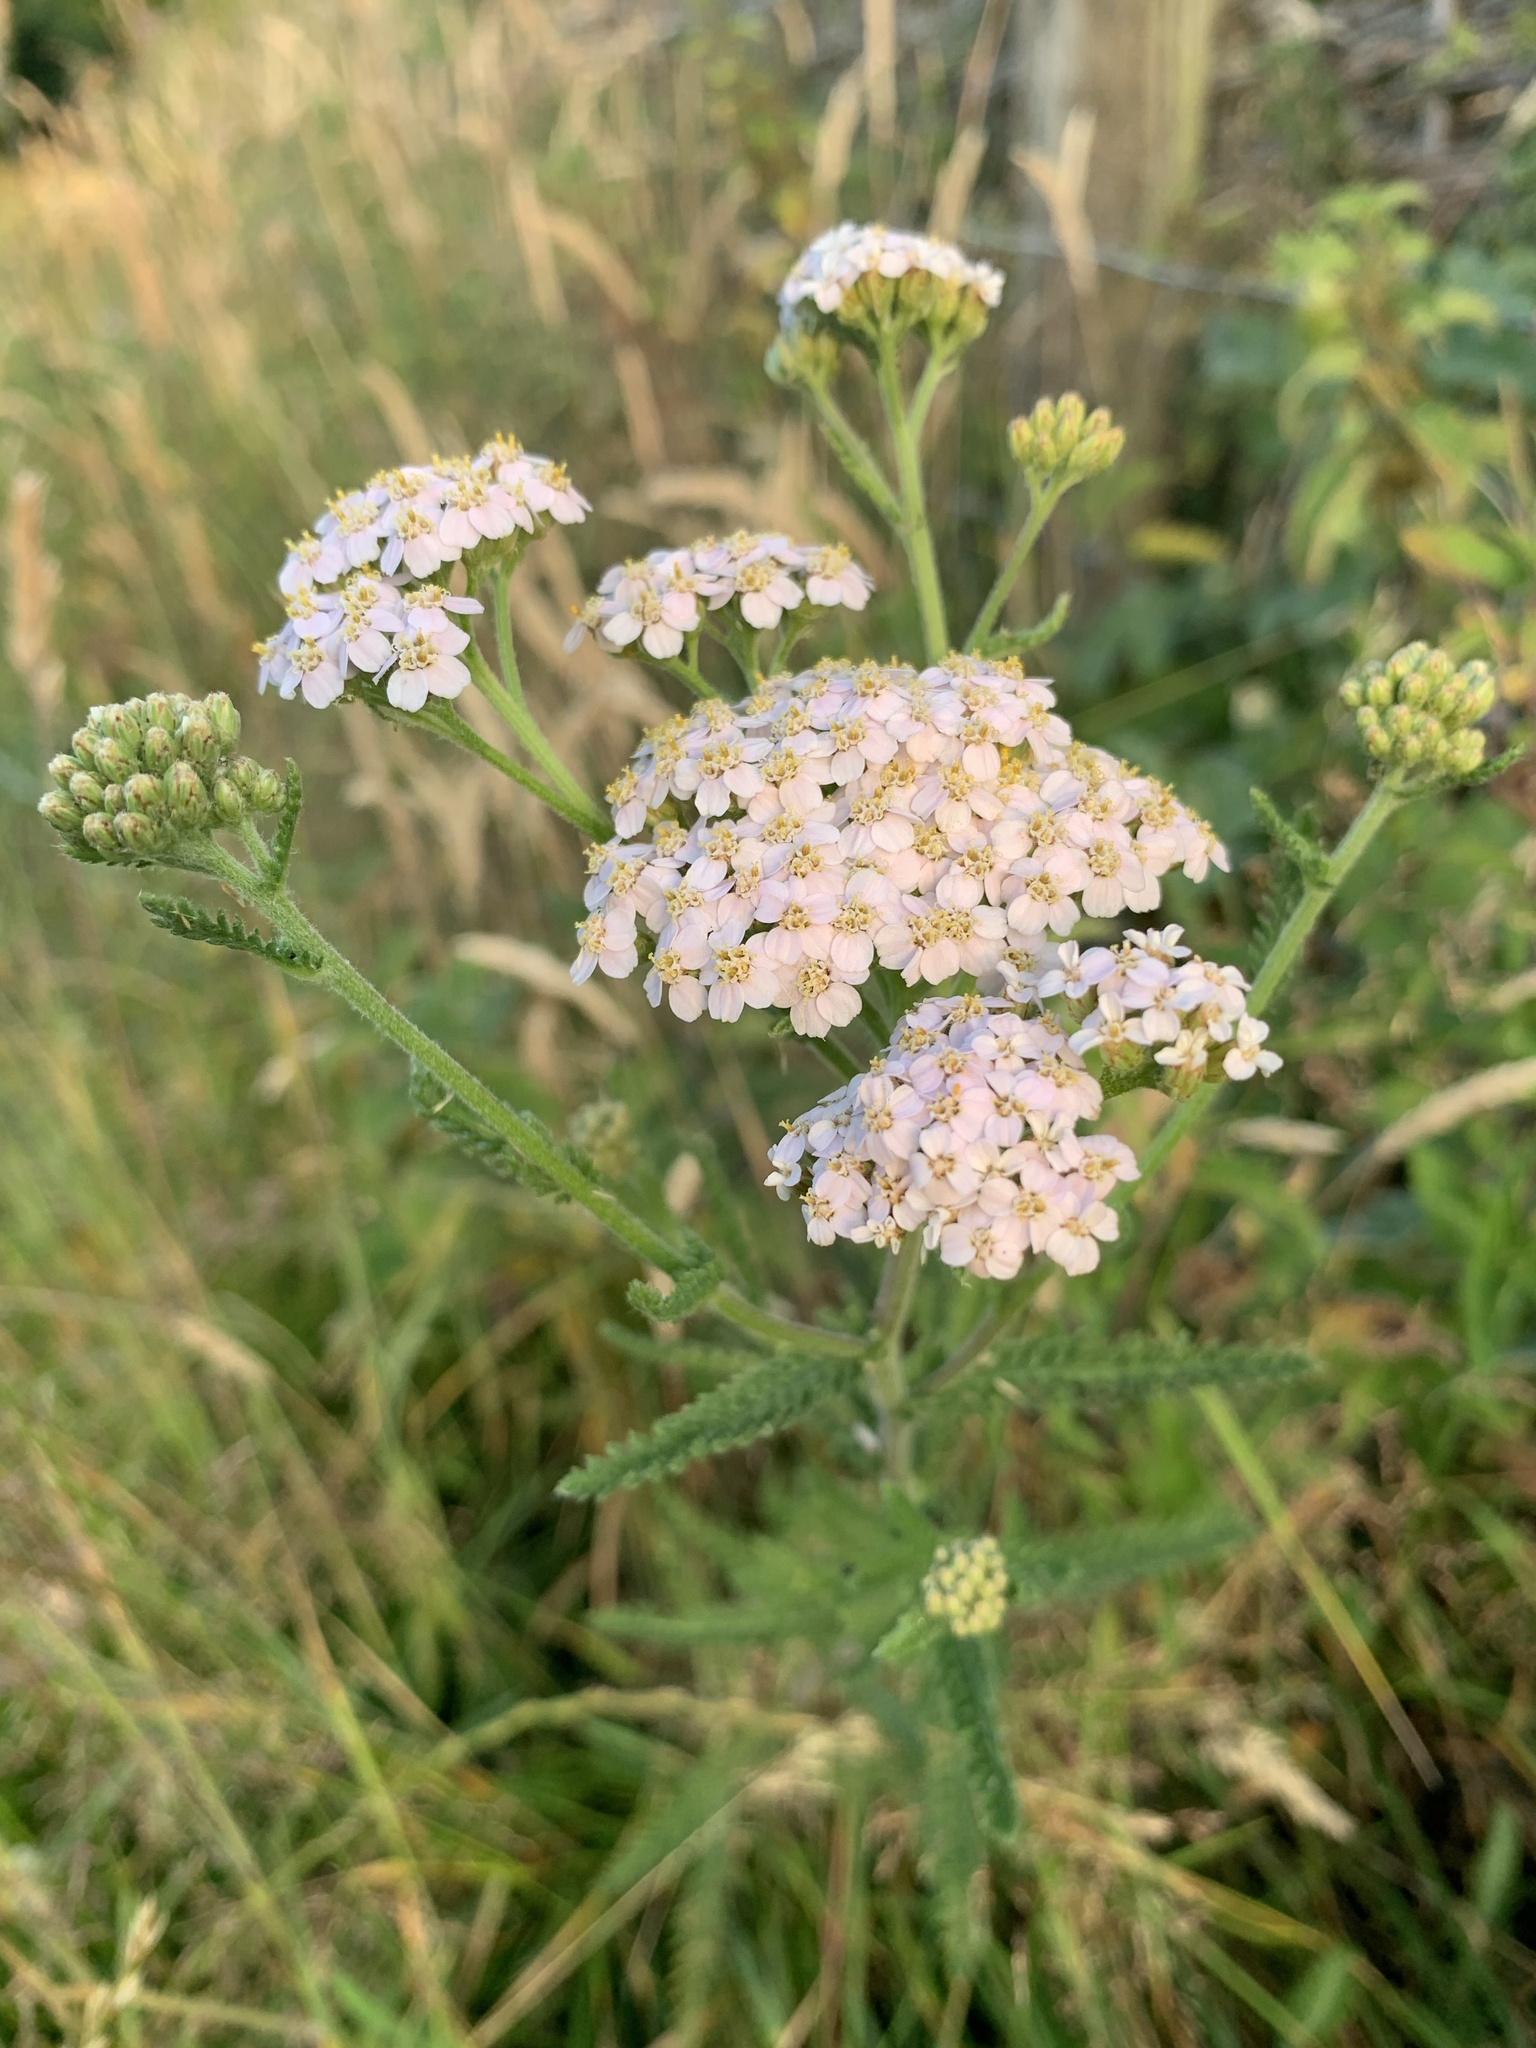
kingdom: Plantae
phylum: Tracheophyta
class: Magnoliopsida
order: Asterales
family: Asteraceae
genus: Achillea
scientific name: Achillea millefolium
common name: Yarrow
